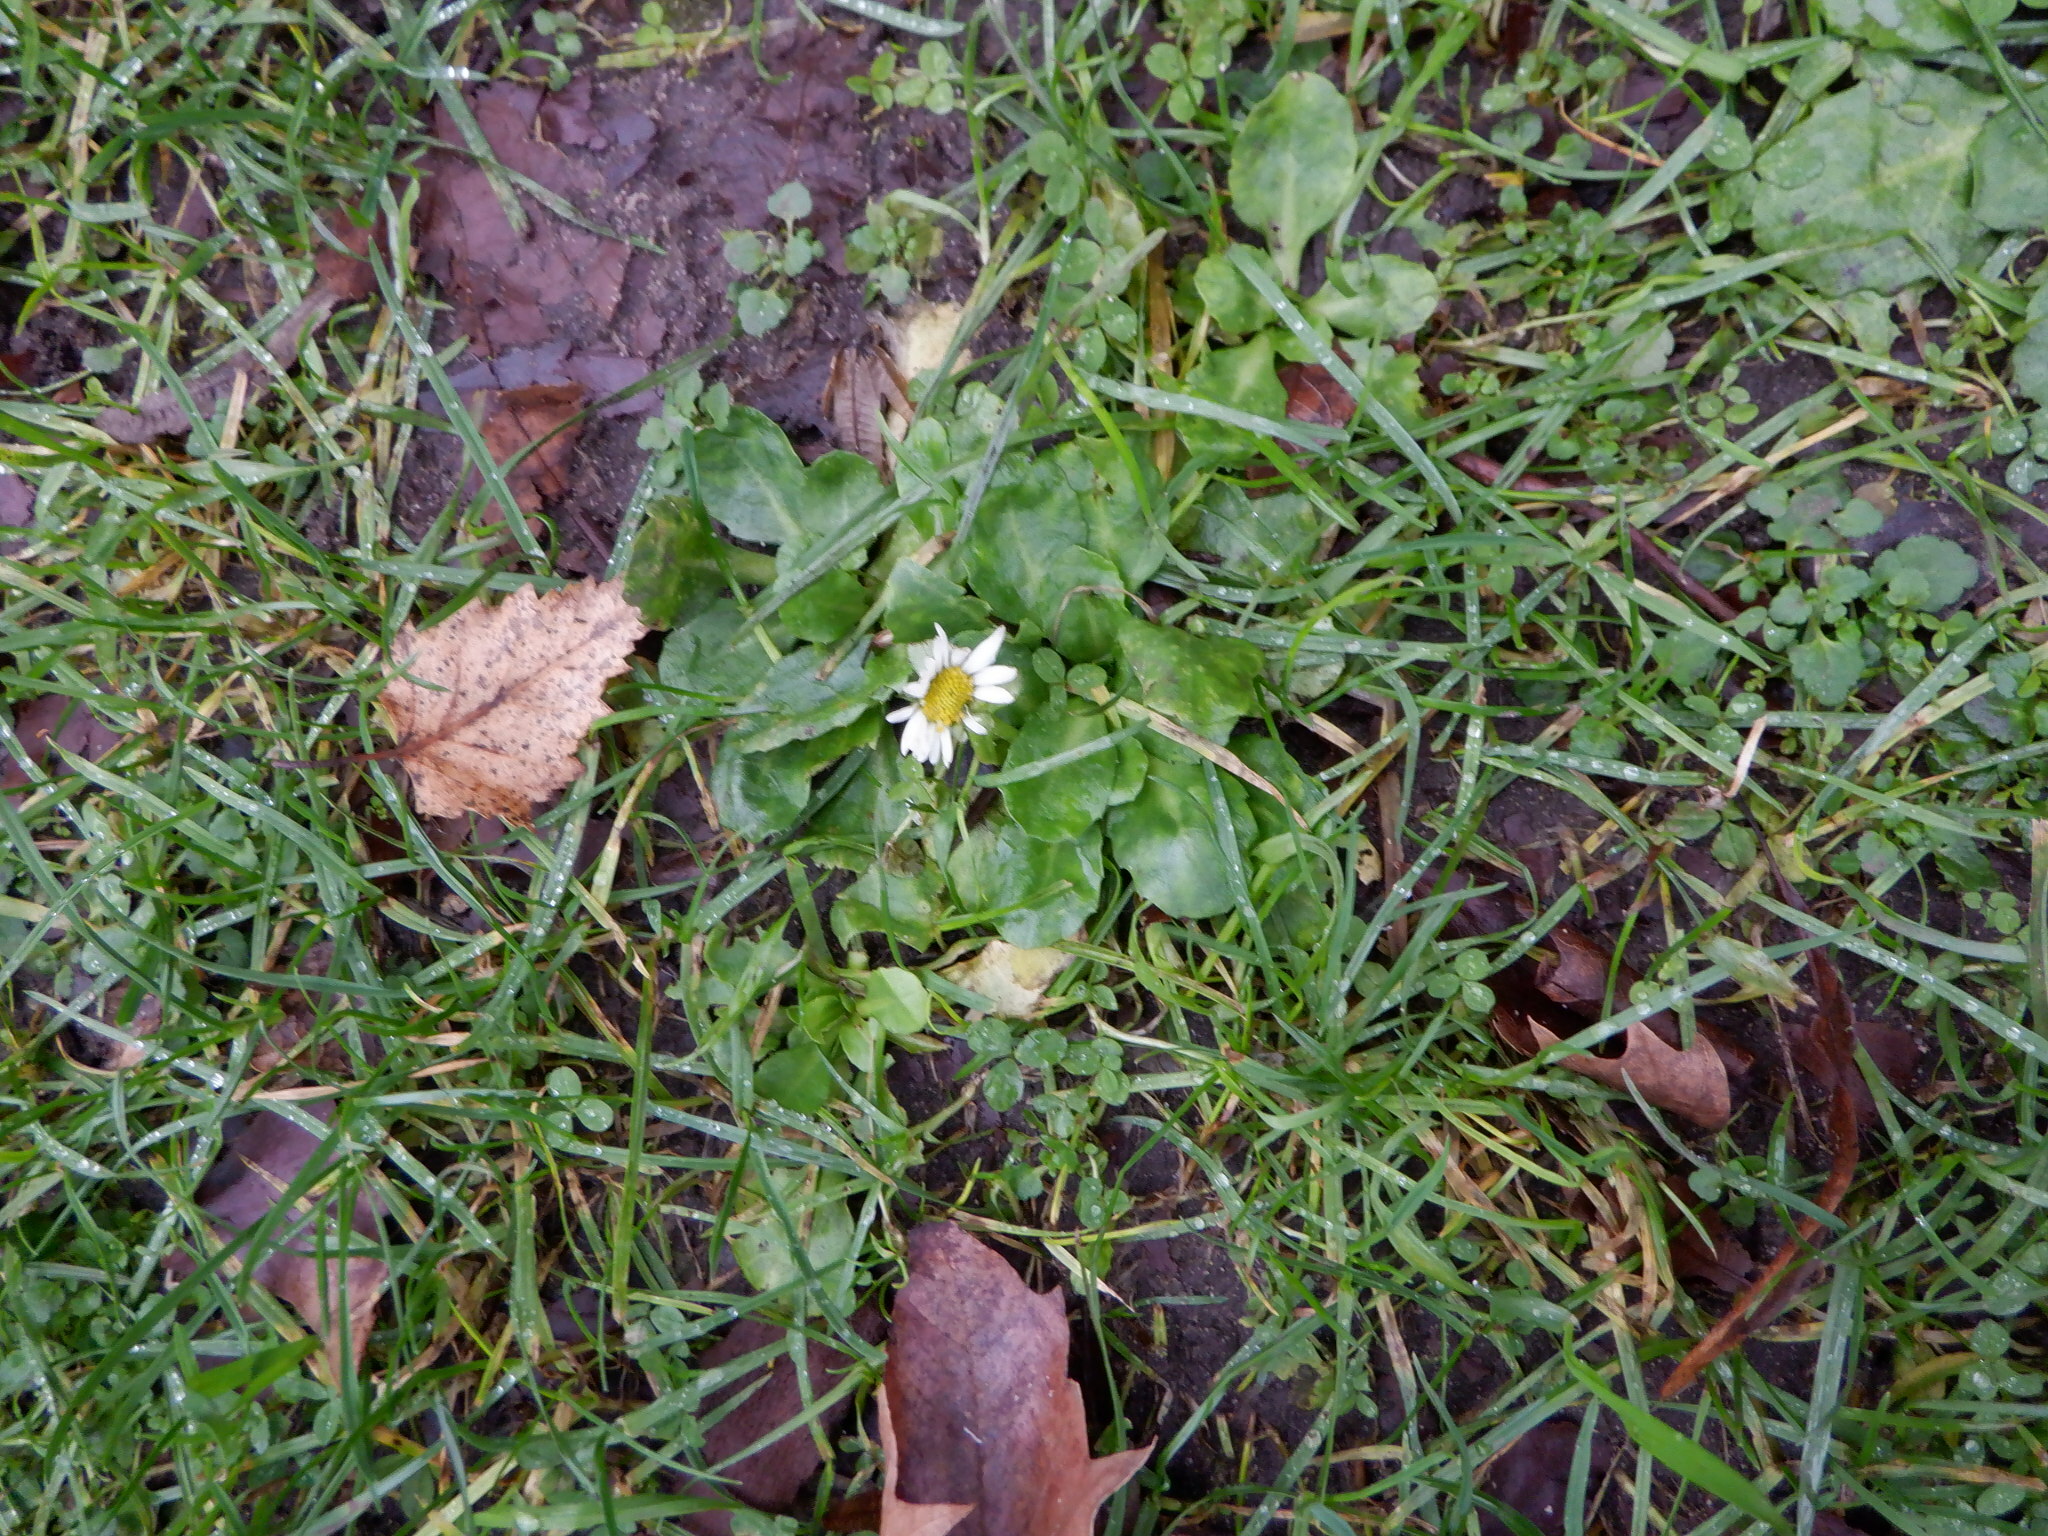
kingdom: Plantae
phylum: Tracheophyta
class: Magnoliopsida
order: Asterales
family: Asteraceae
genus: Bellis
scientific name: Bellis perennis
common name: Lawndaisy
